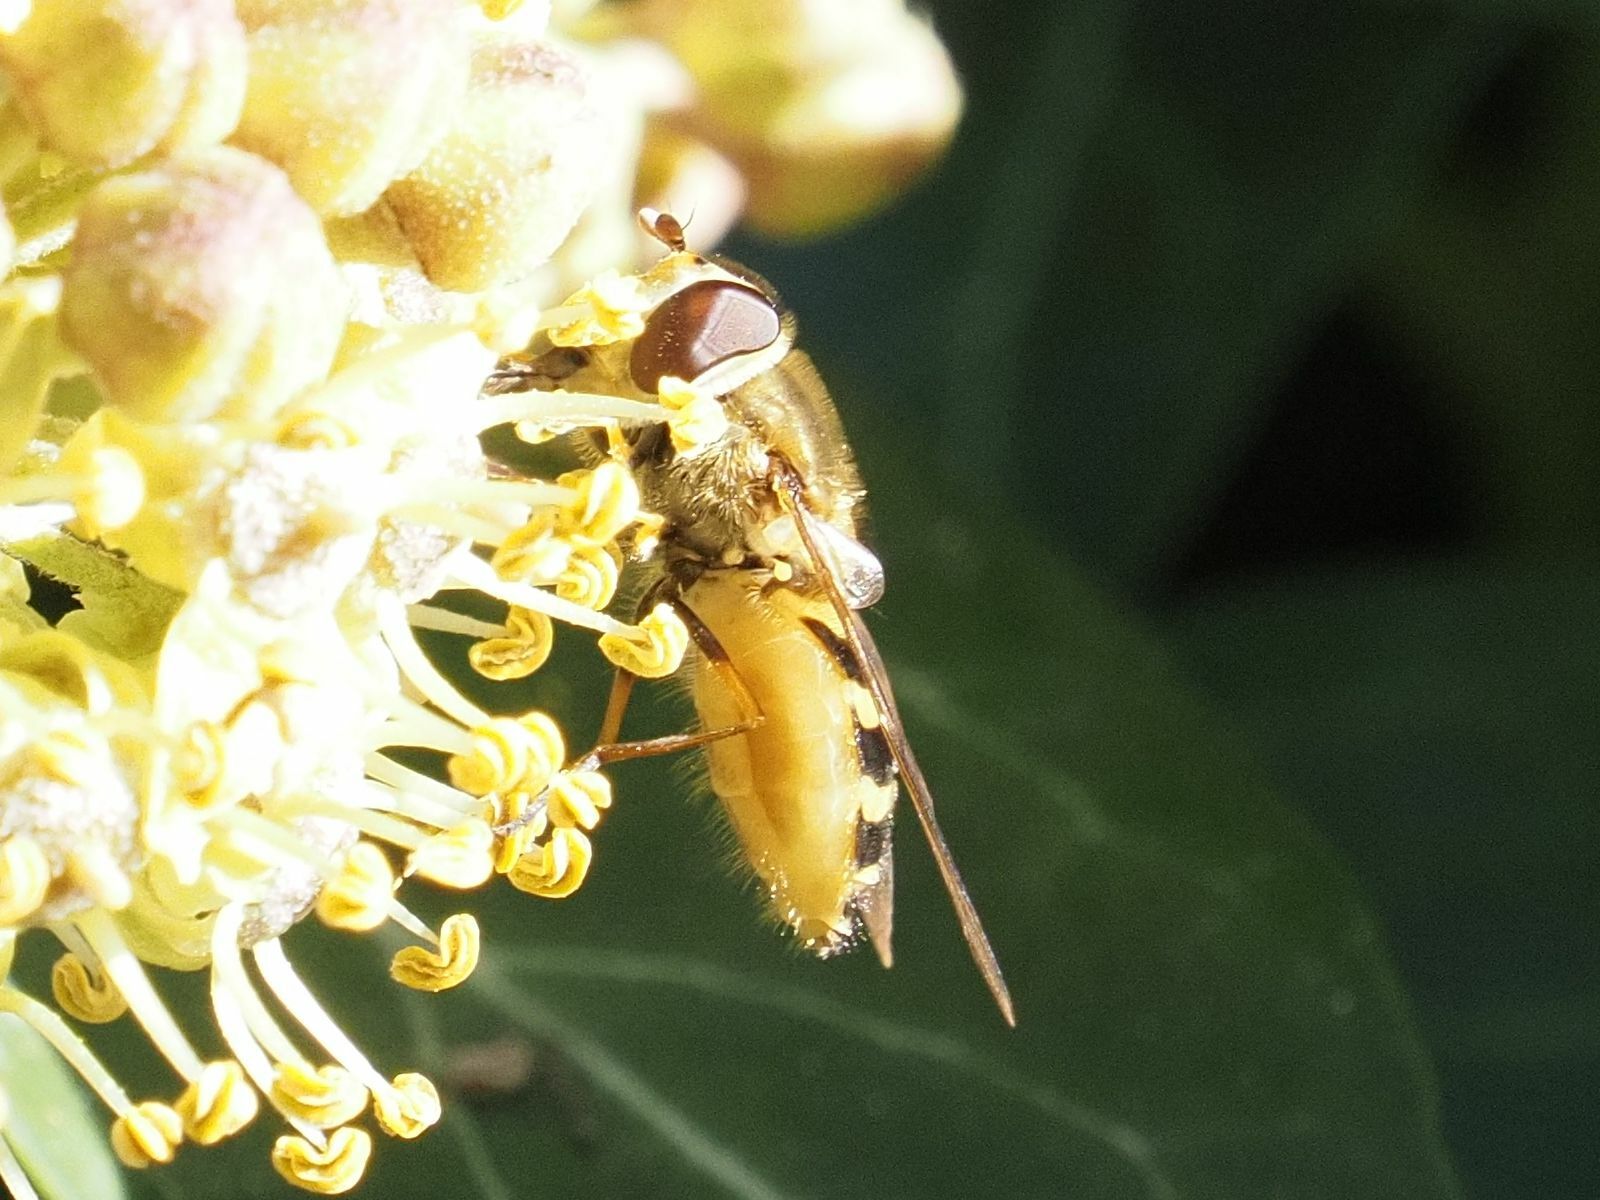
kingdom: Animalia
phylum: Arthropoda
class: Insecta
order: Diptera
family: Syrphidae
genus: Syrphus
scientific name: Syrphus
